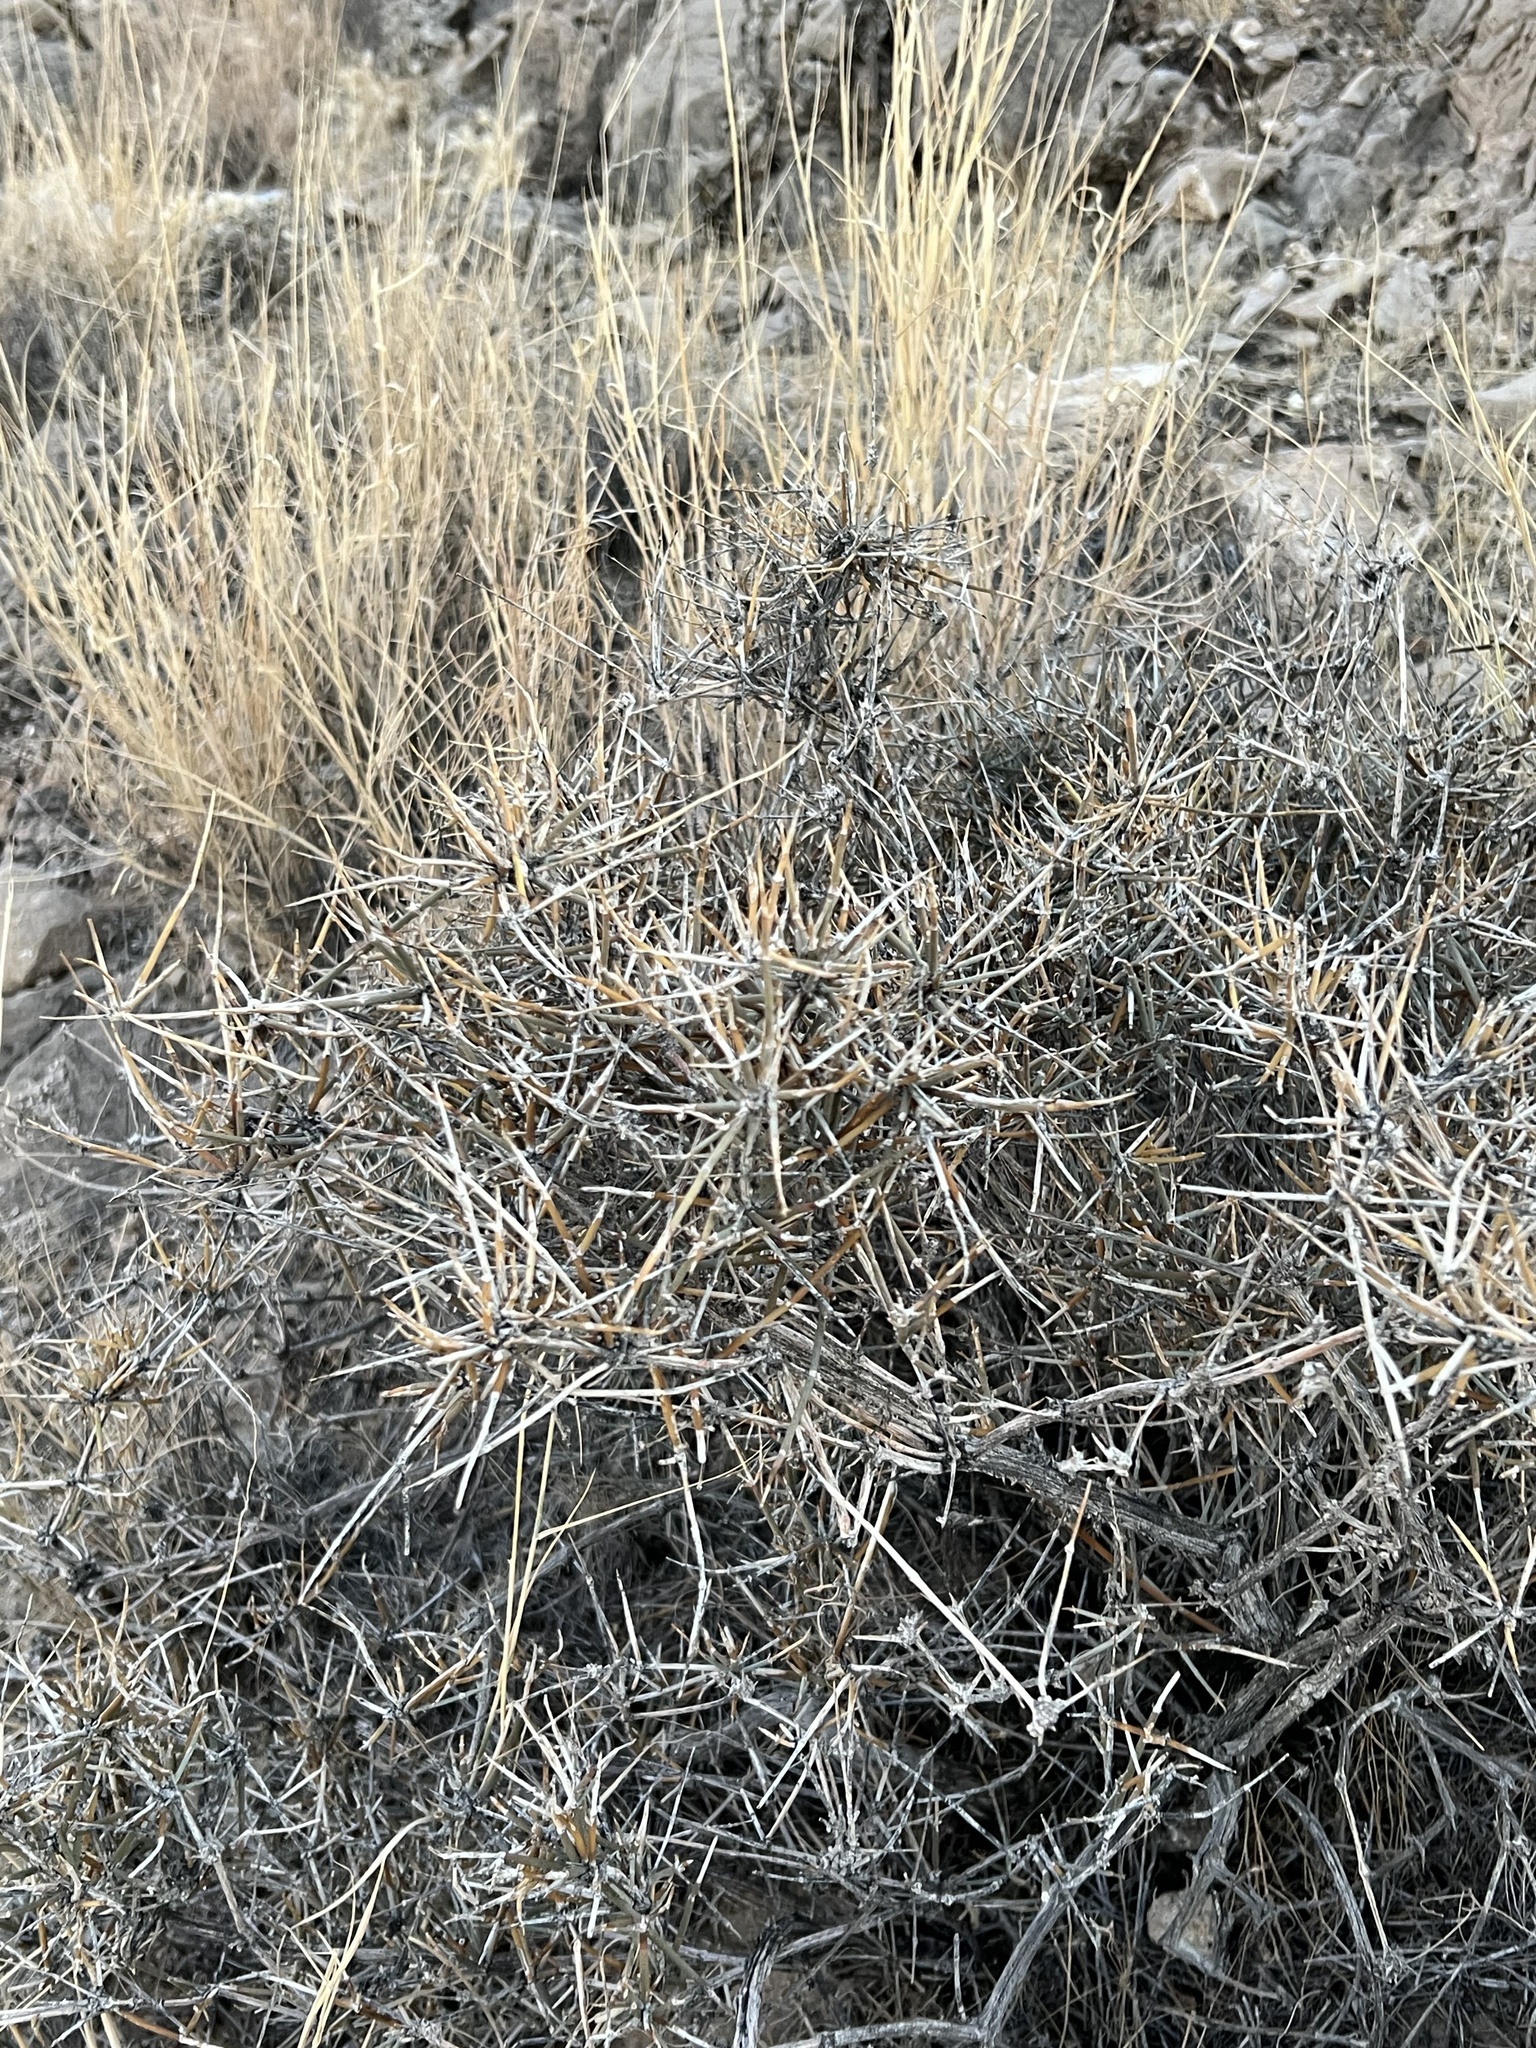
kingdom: Plantae
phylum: Tracheophyta
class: Gnetopsida
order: Ephedrales
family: Ephedraceae
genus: Ephedra
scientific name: Ephedra nevadensis
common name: Gray ephedra
